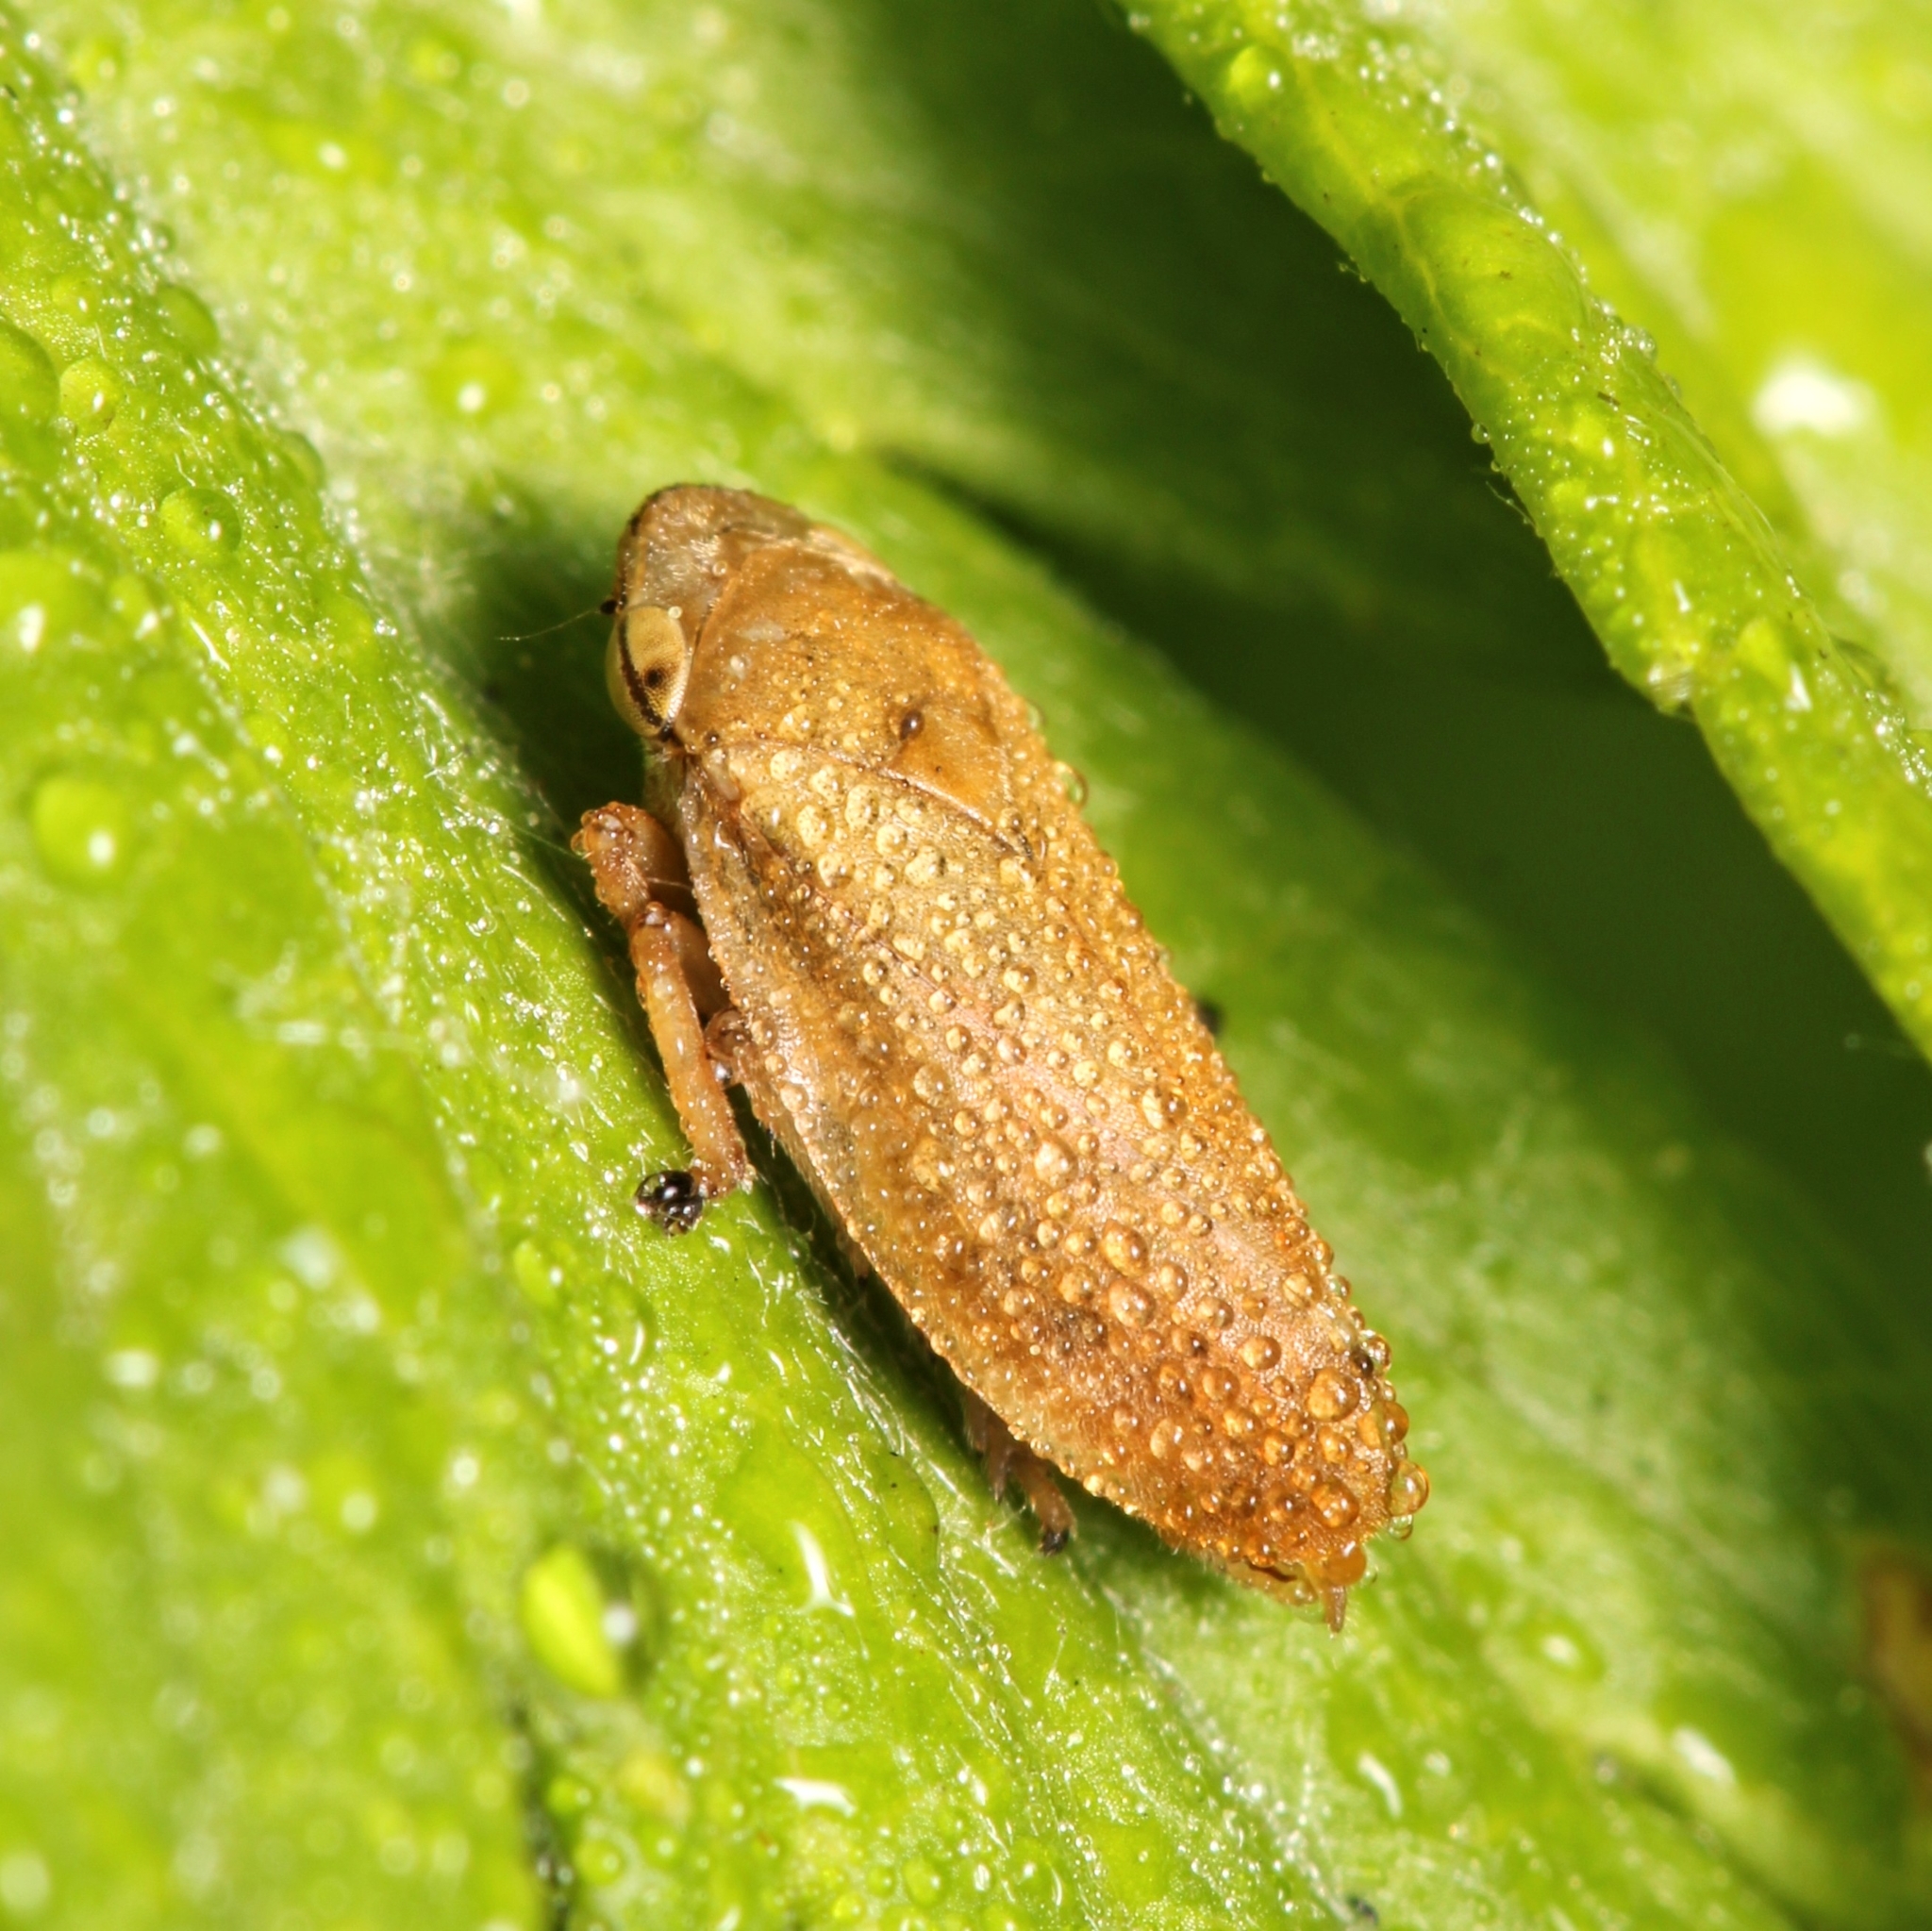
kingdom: Animalia
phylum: Arthropoda
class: Insecta
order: Hemiptera
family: Aphrophoridae
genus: Philaenus
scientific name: Philaenus spumarius
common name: Meadow spittlebug
